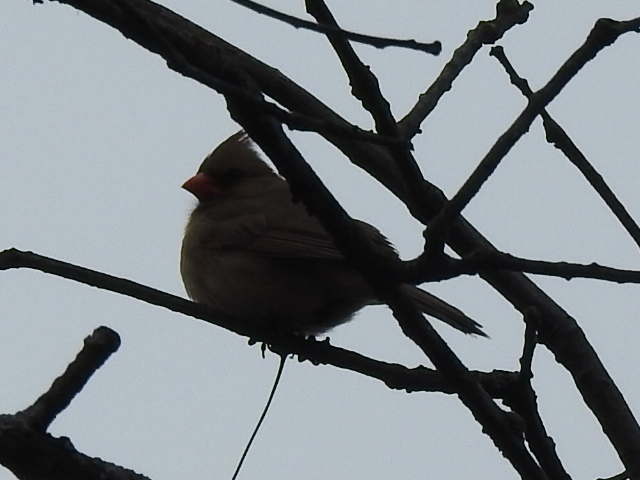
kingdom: Animalia
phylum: Chordata
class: Aves
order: Passeriformes
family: Cardinalidae
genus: Cardinalis
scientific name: Cardinalis cardinalis
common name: Northern cardinal
